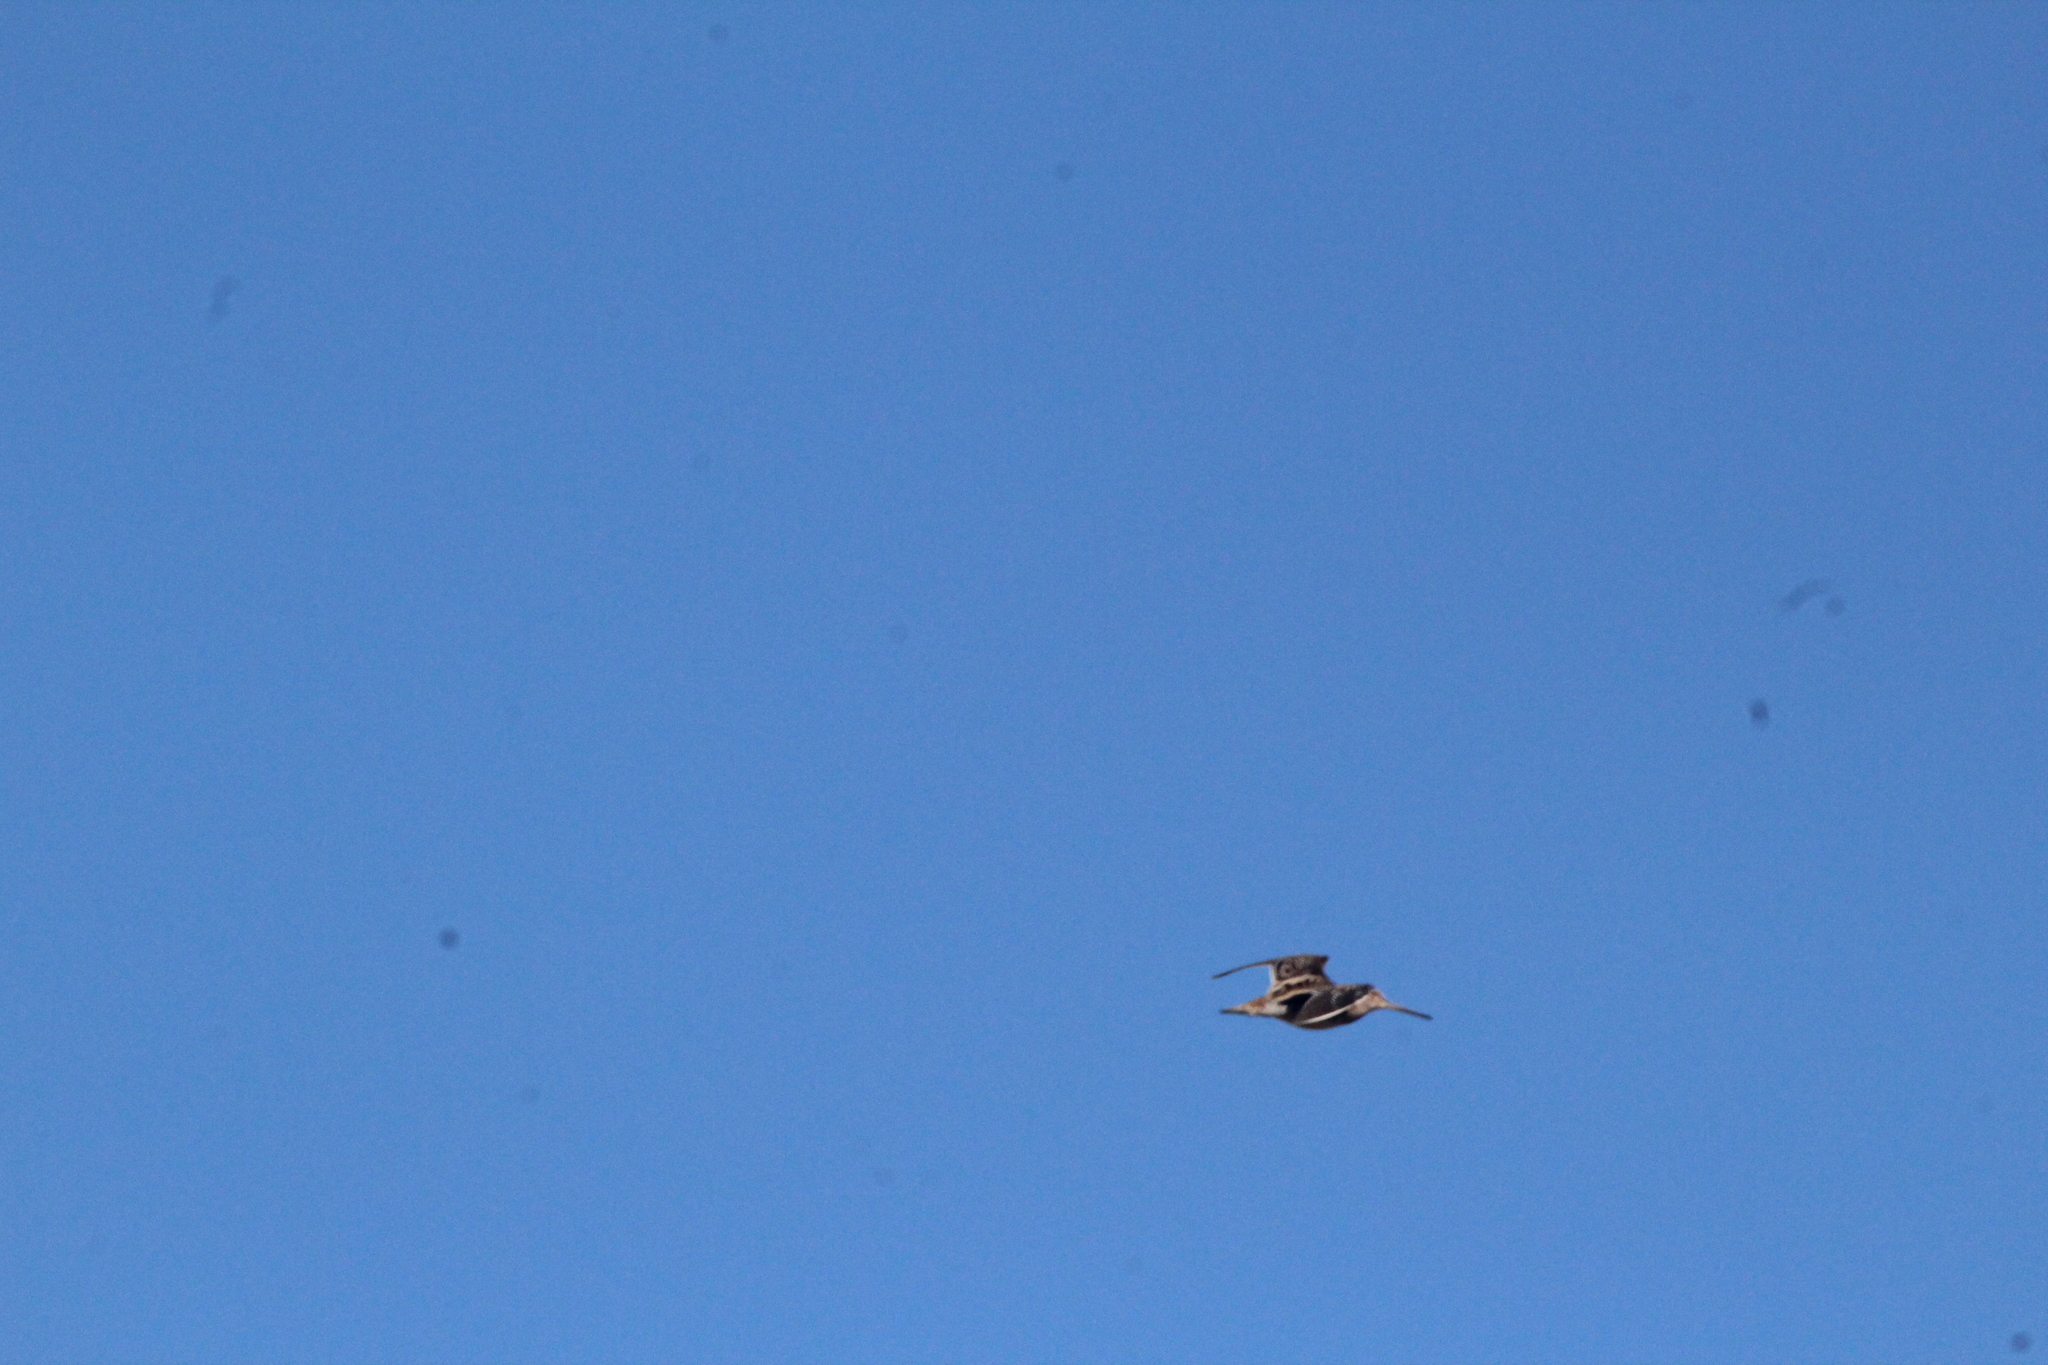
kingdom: Animalia
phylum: Chordata
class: Aves
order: Charadriiformes
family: Scolopacidae
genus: Gallinago
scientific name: Gallinago delicata
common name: Wilson's snipe
